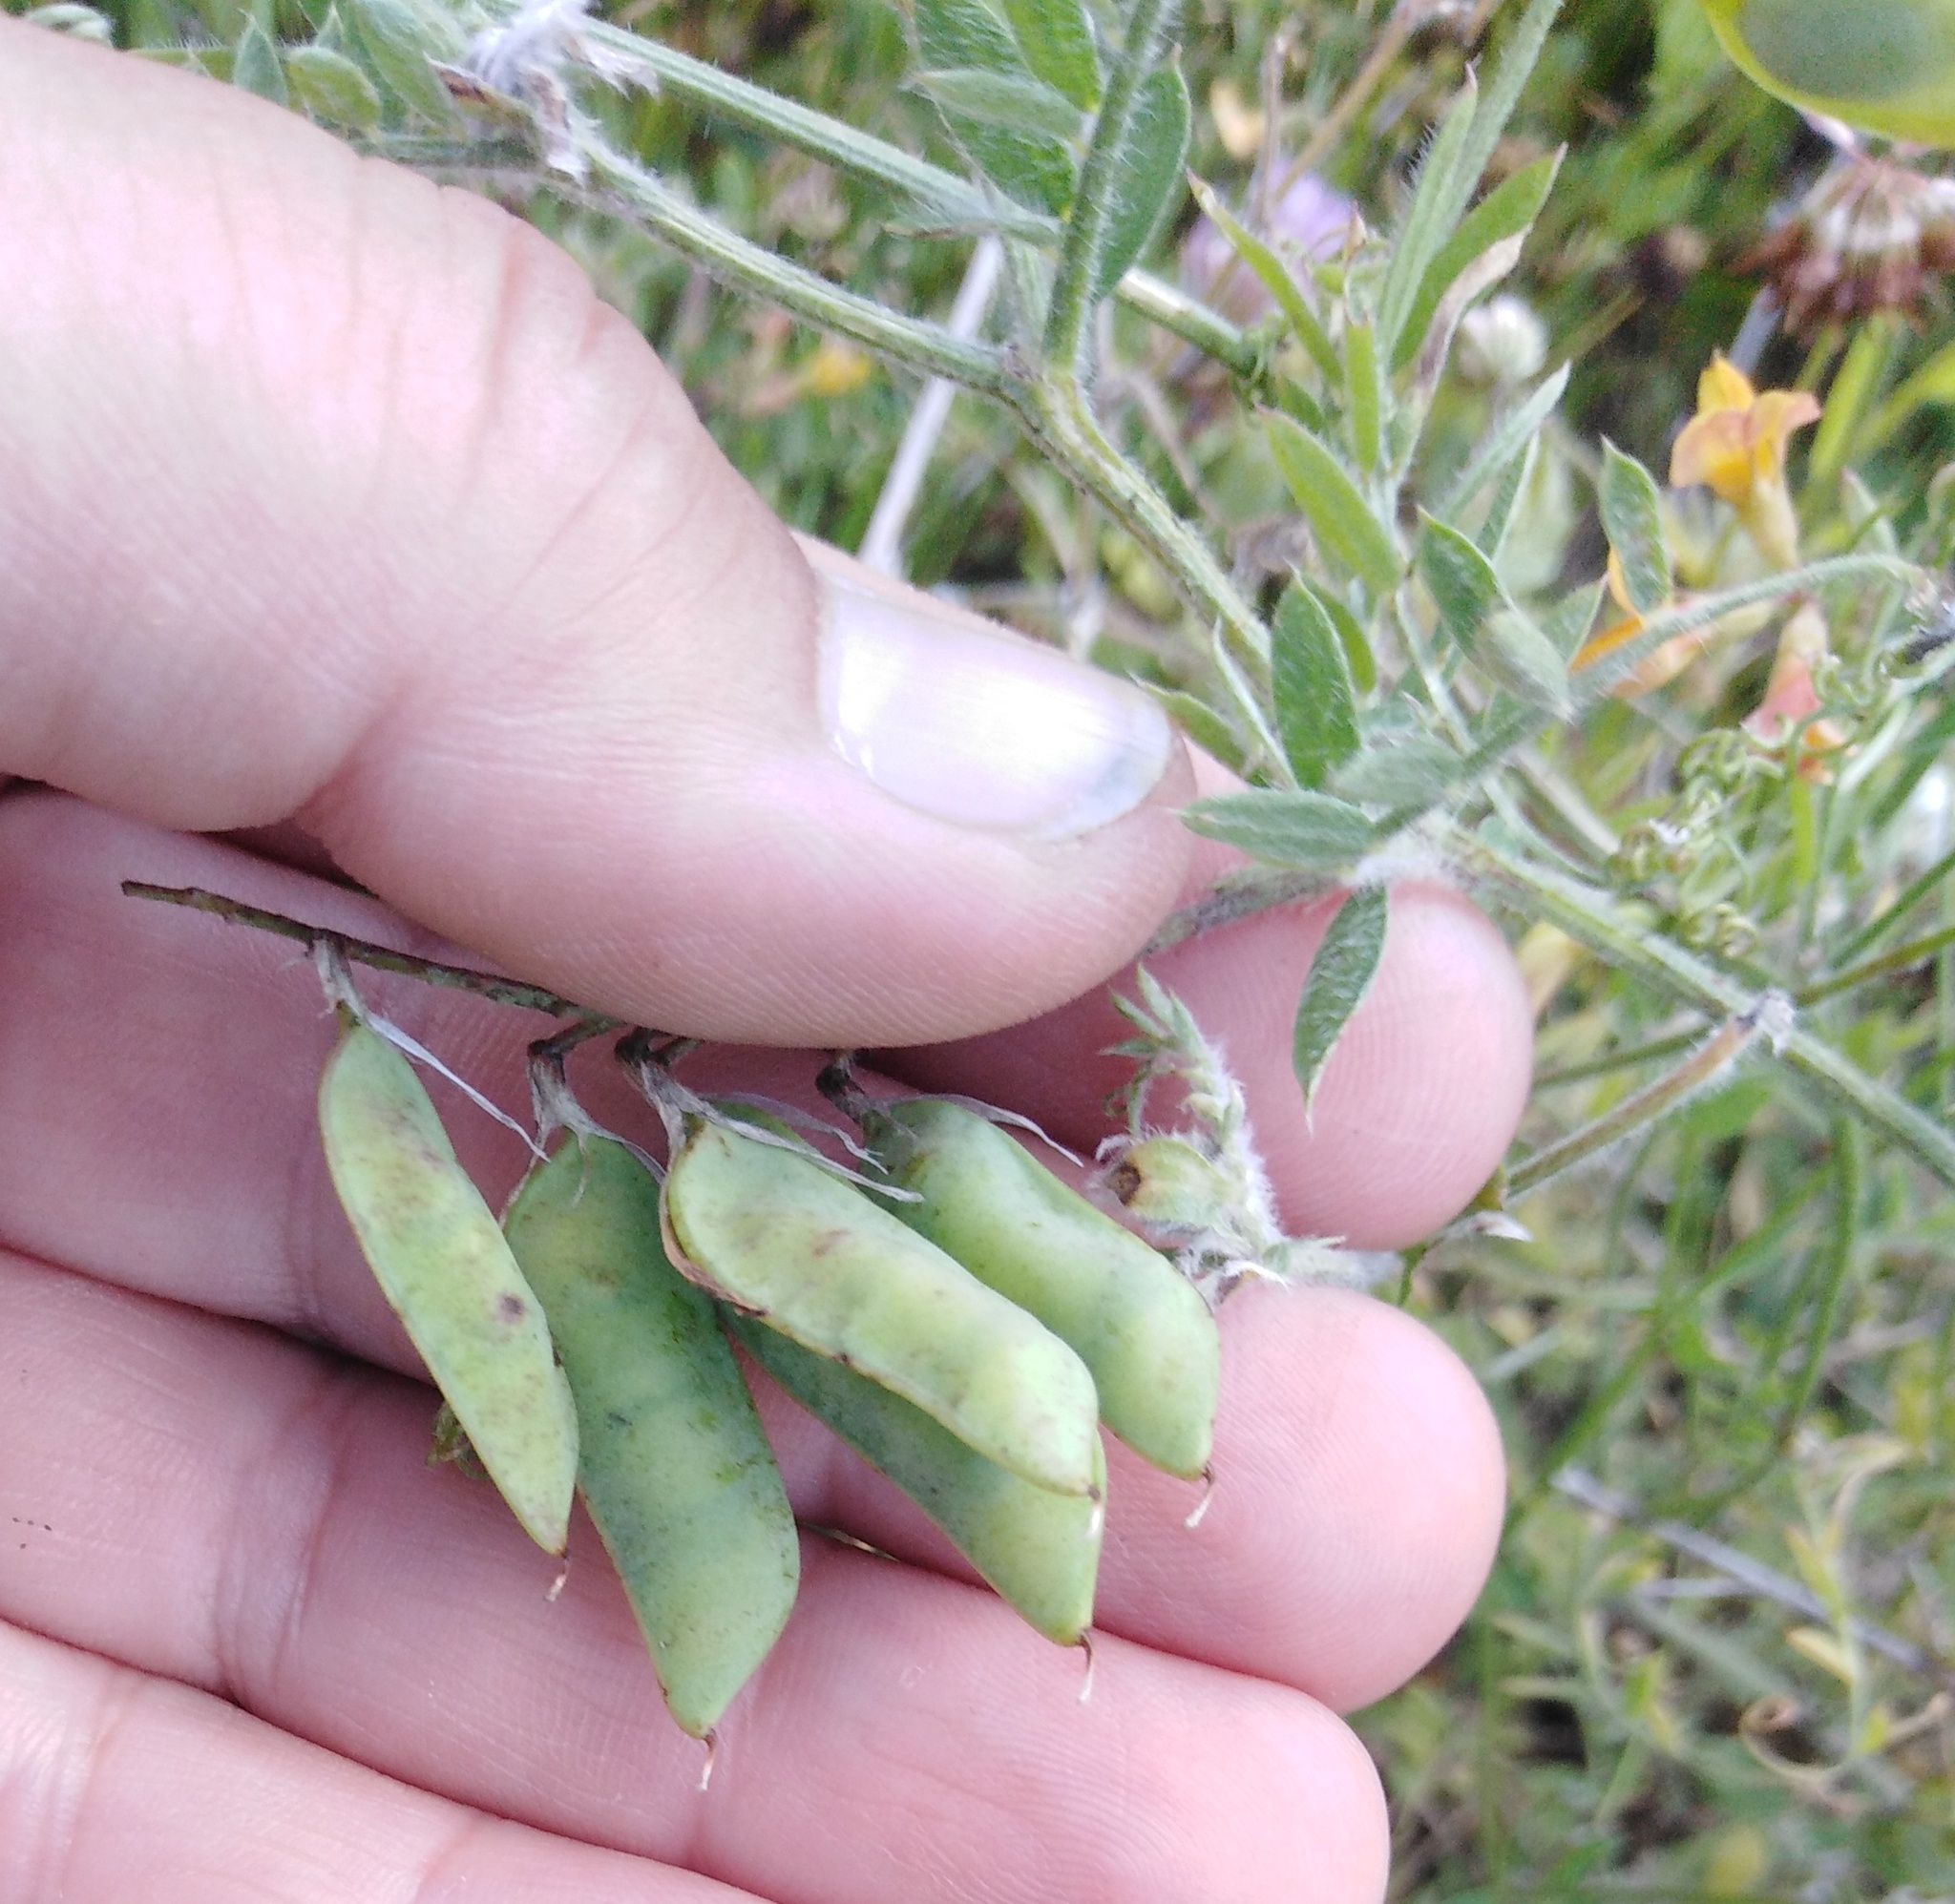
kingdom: Plantae
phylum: Tracheophyta
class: Magnoliopsida
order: Fabales
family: Fabaceae
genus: Vicia
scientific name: Vicia villosa
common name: Fodder vetch
